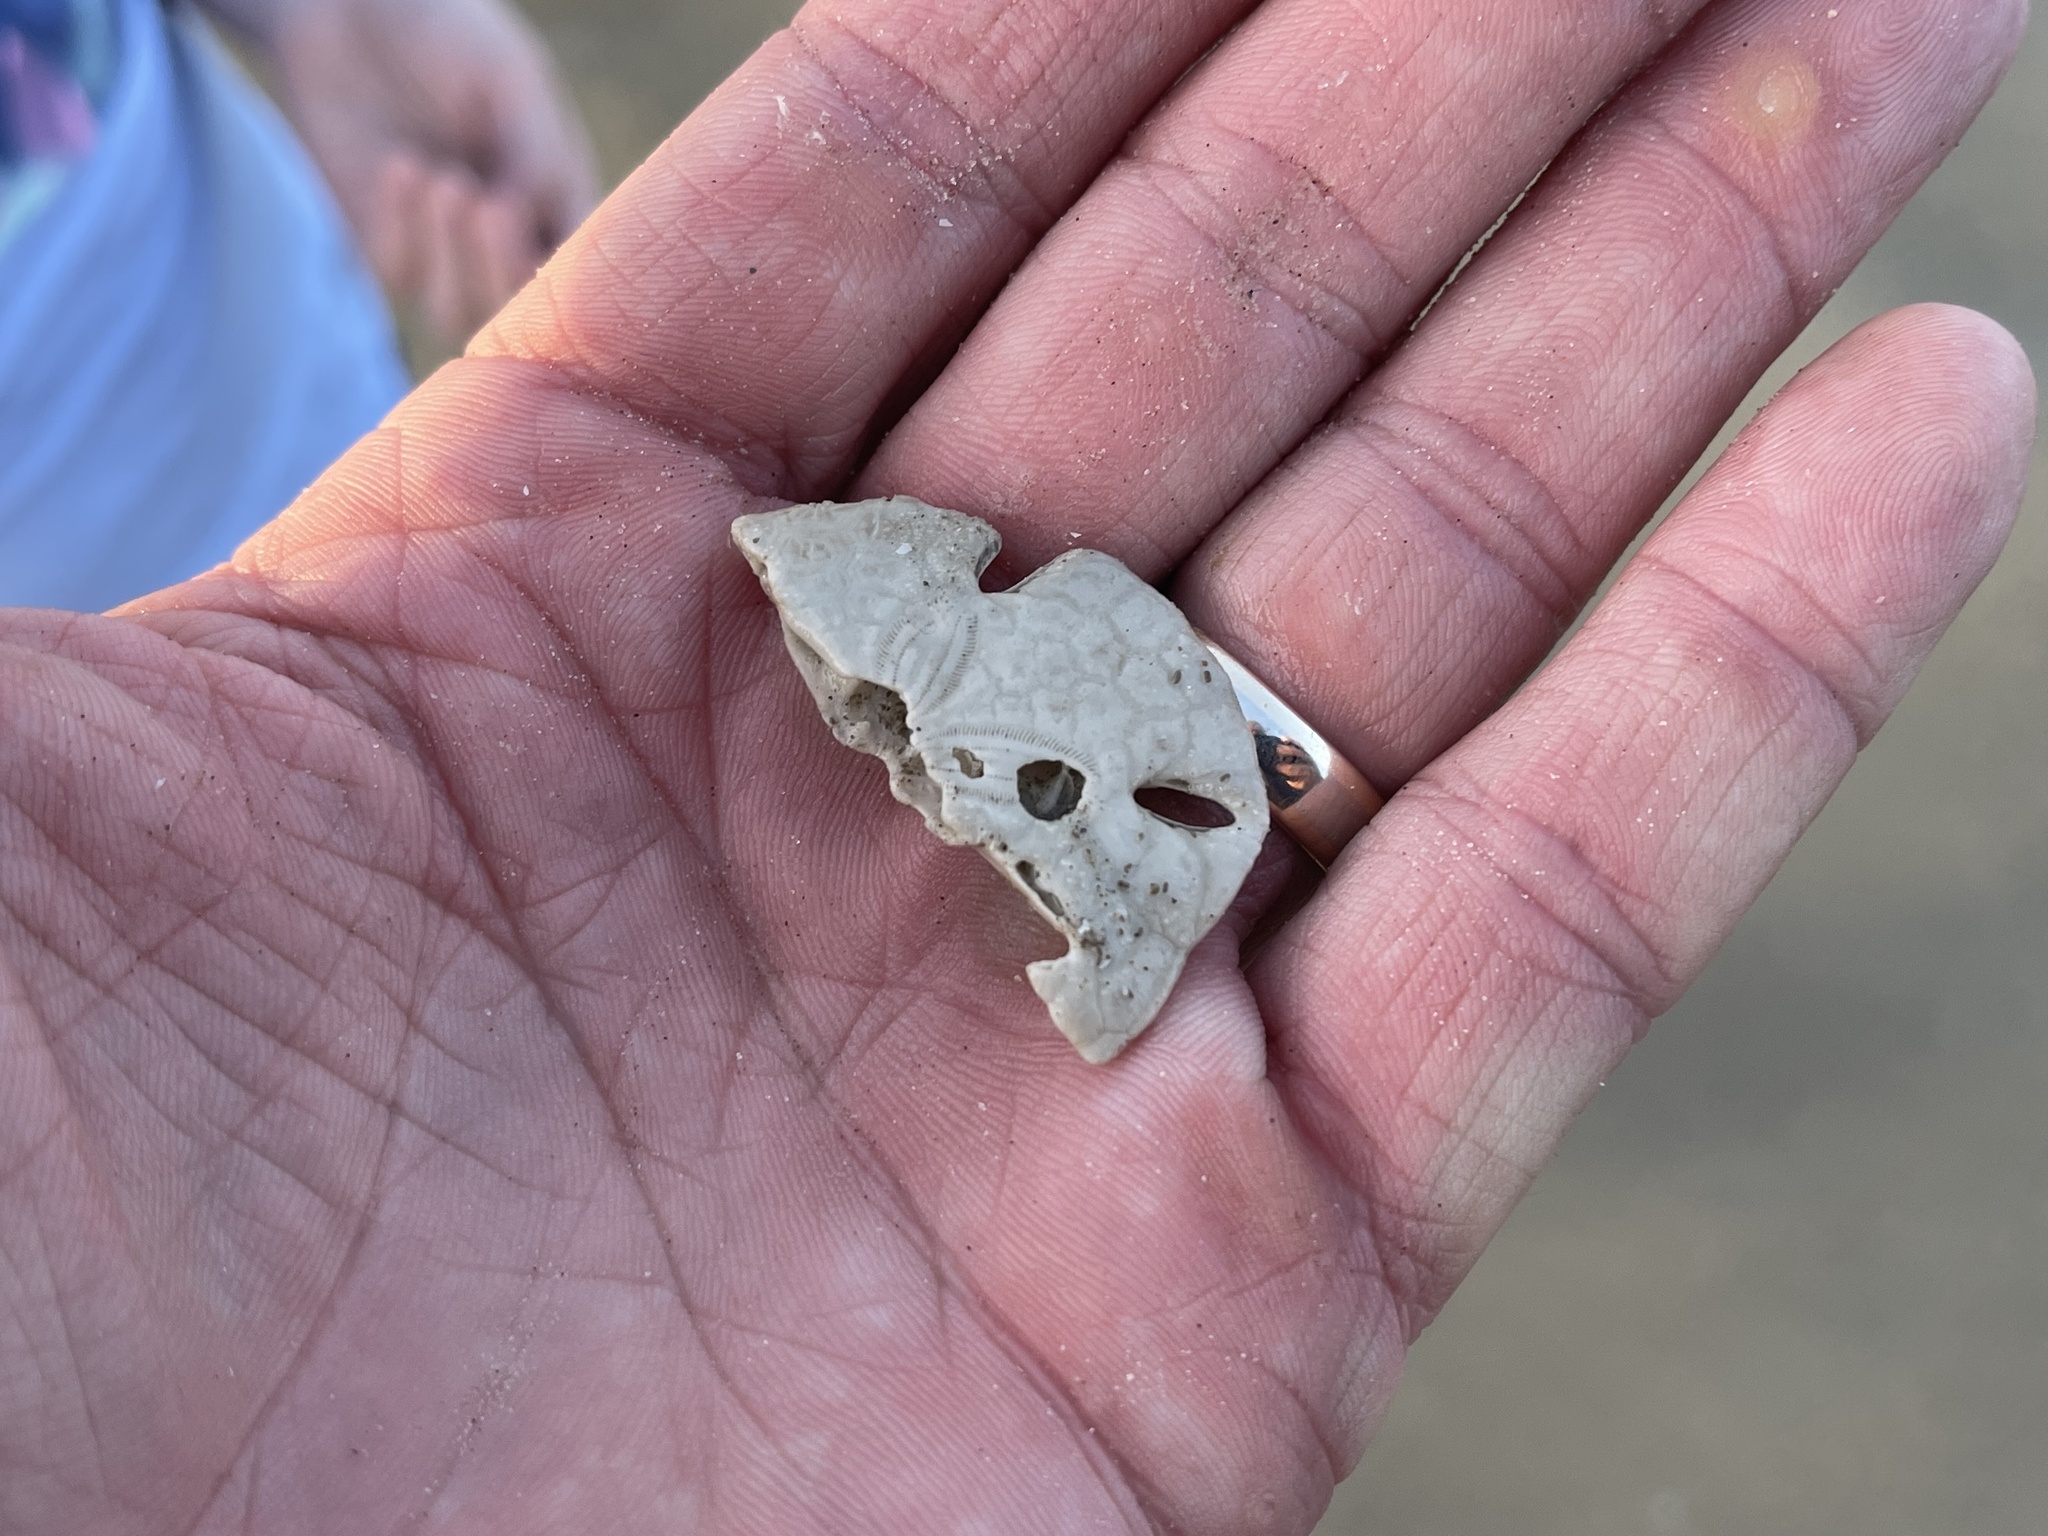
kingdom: Animalia
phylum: Echinodermata
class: Echinoidea
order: Echinolampadacea
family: Mellitidae
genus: Mellita
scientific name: Mellita quinquiesperforata
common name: Sand dollar
